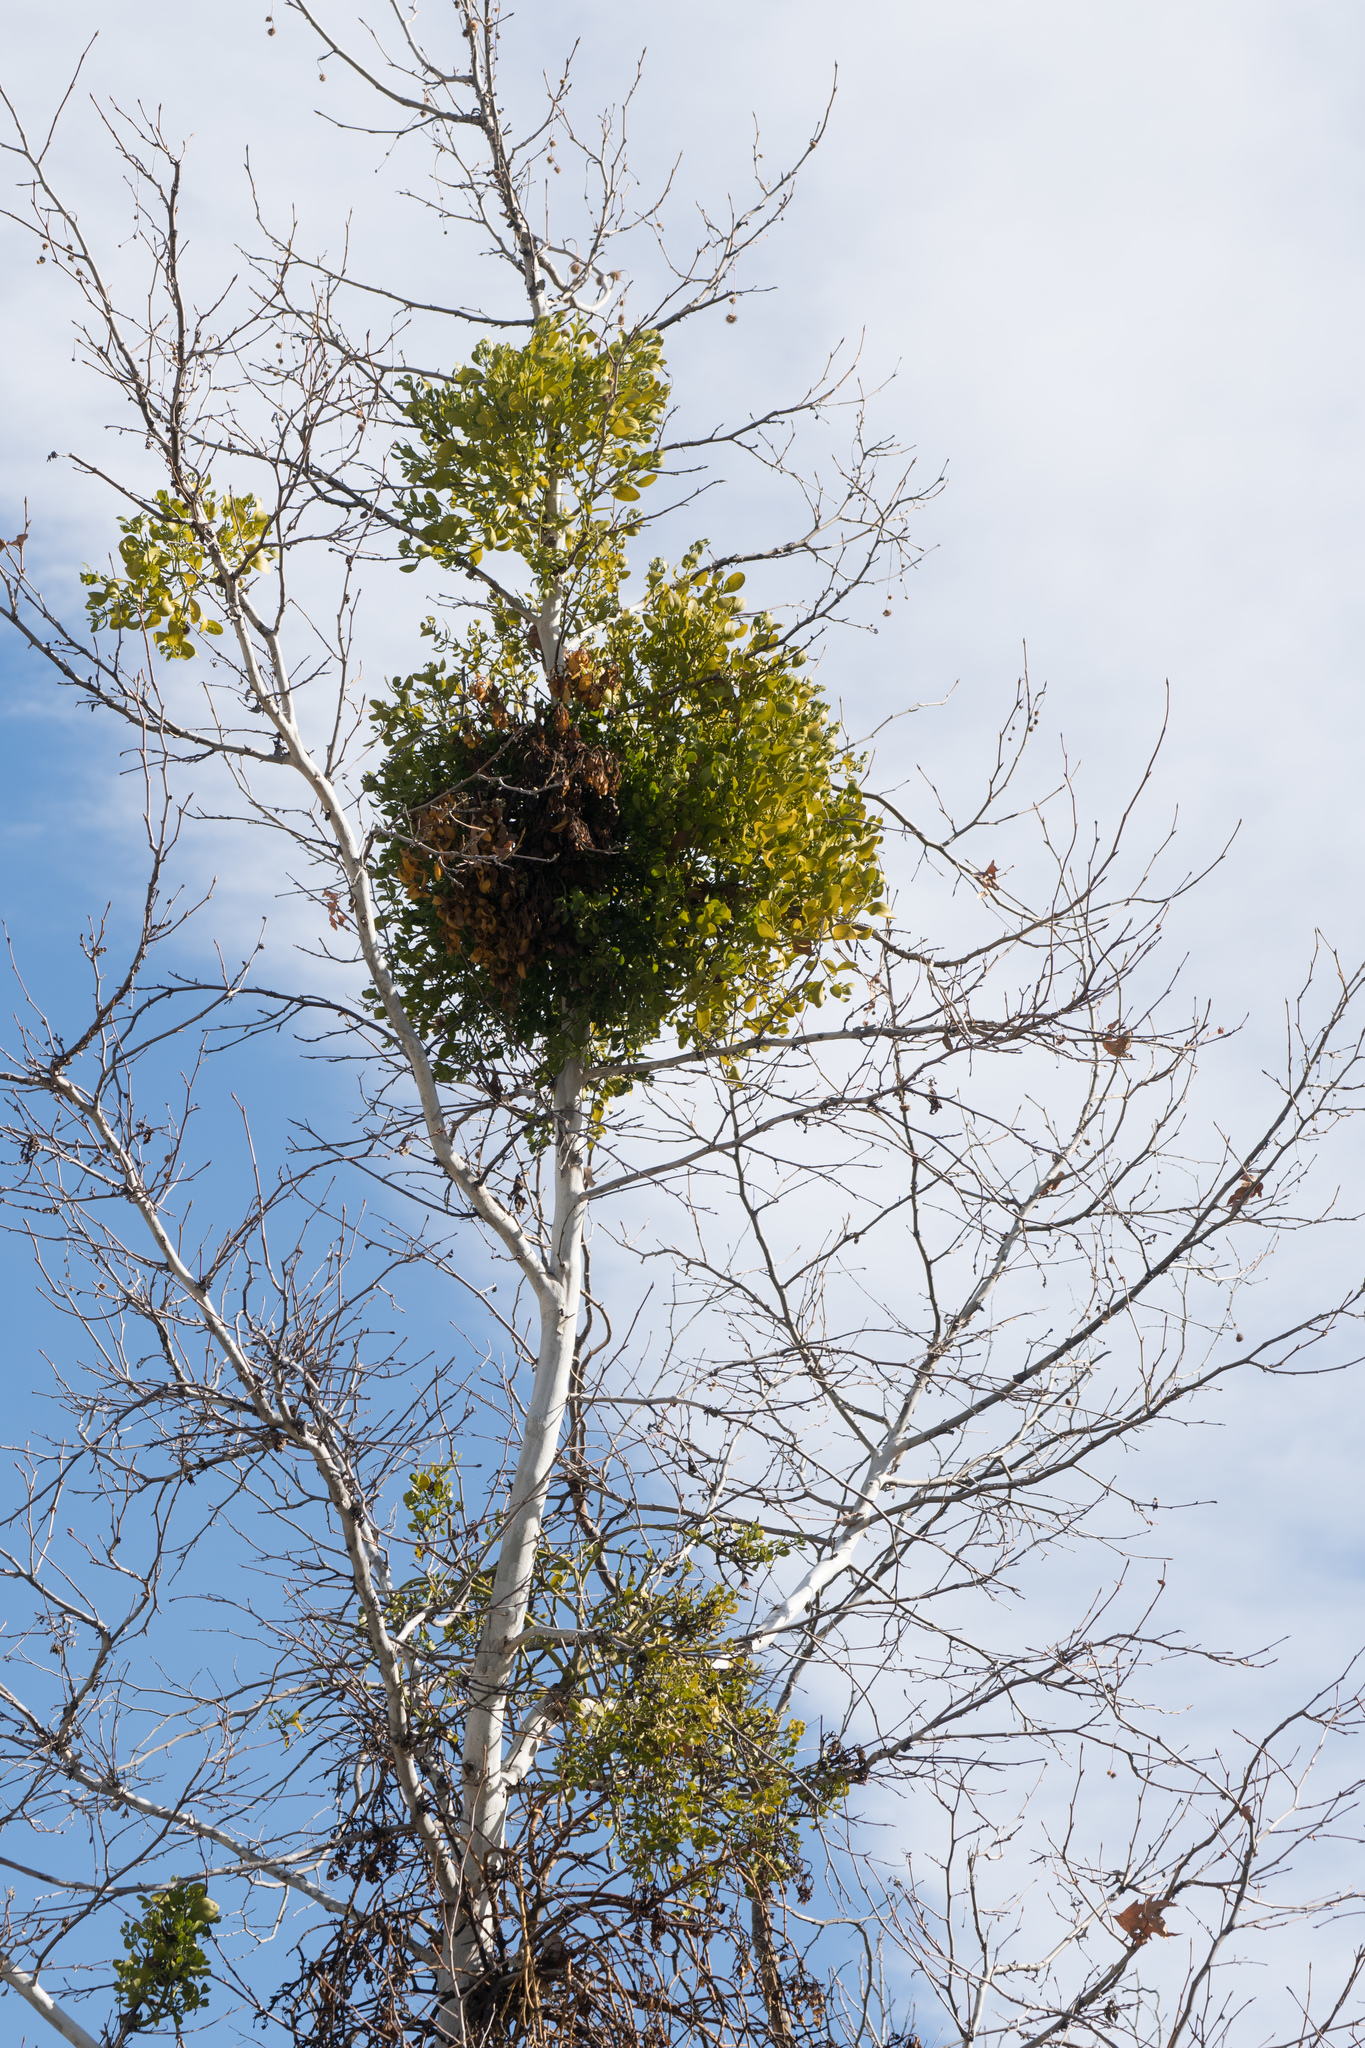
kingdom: Plantae
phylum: Tracheophyta
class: Magnoliopsida
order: Proteales
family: Platanaceae
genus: Platanus
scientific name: Platanus racemosa
